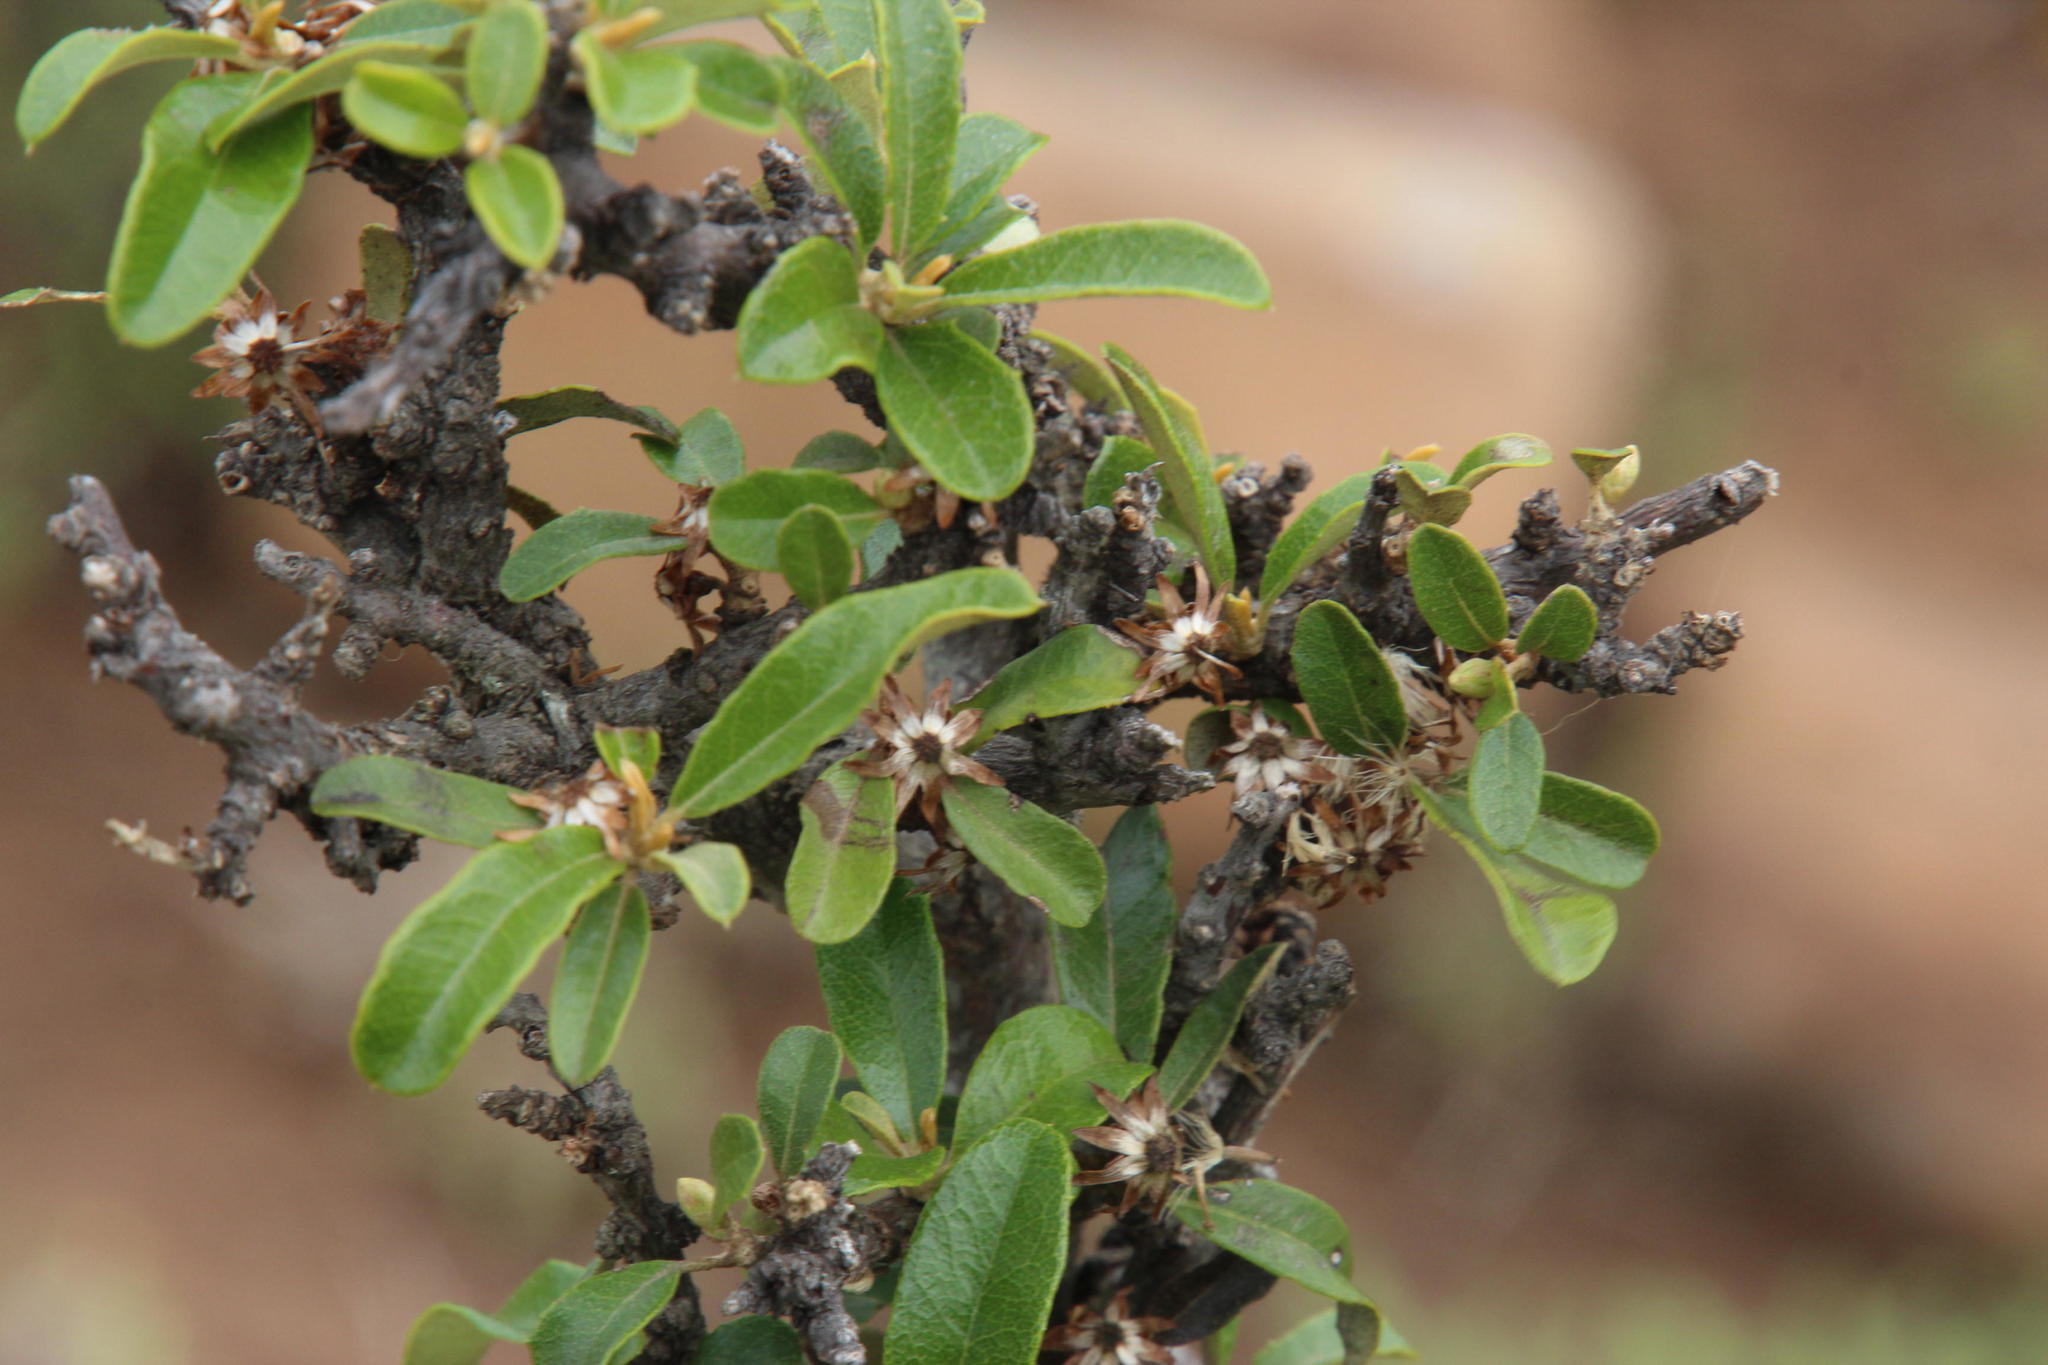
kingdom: Plantae
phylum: Tracheophyta
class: Magnoliopsida
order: Asterales
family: Asteraceae
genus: Brachylaena
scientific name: Brachylaena ilicifolia
